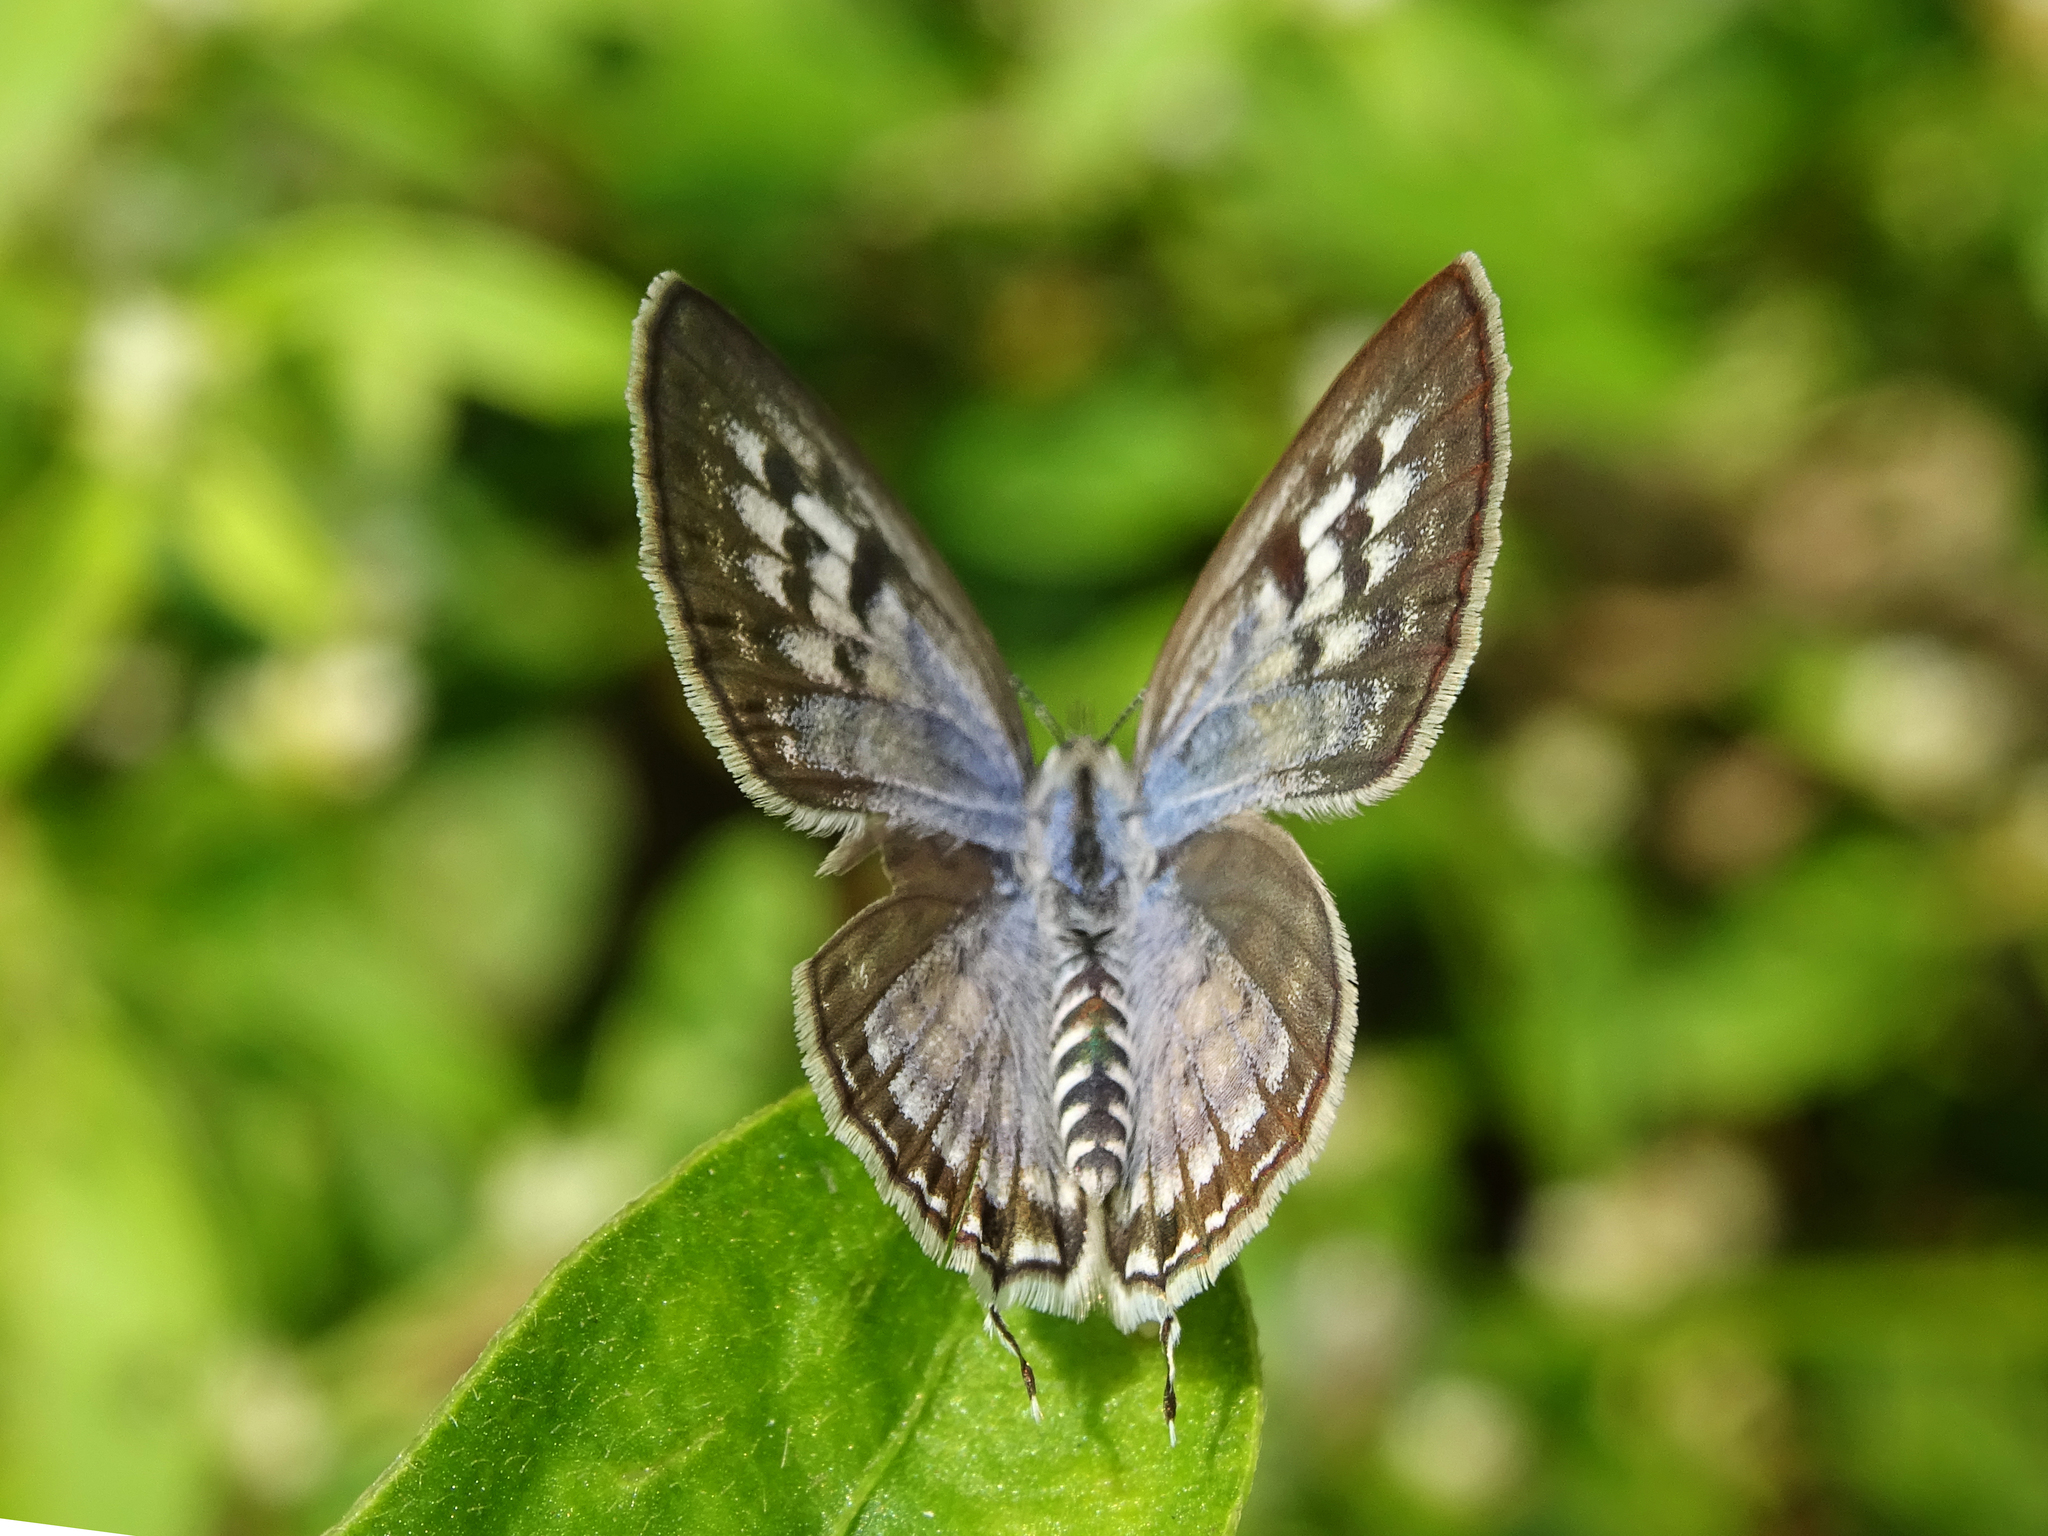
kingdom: Animalia
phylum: Arthropoda
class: Insecta
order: Lepidoptera
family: Lycaenidae
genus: Tarucus
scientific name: Tarucus nara
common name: Striped pierrot
